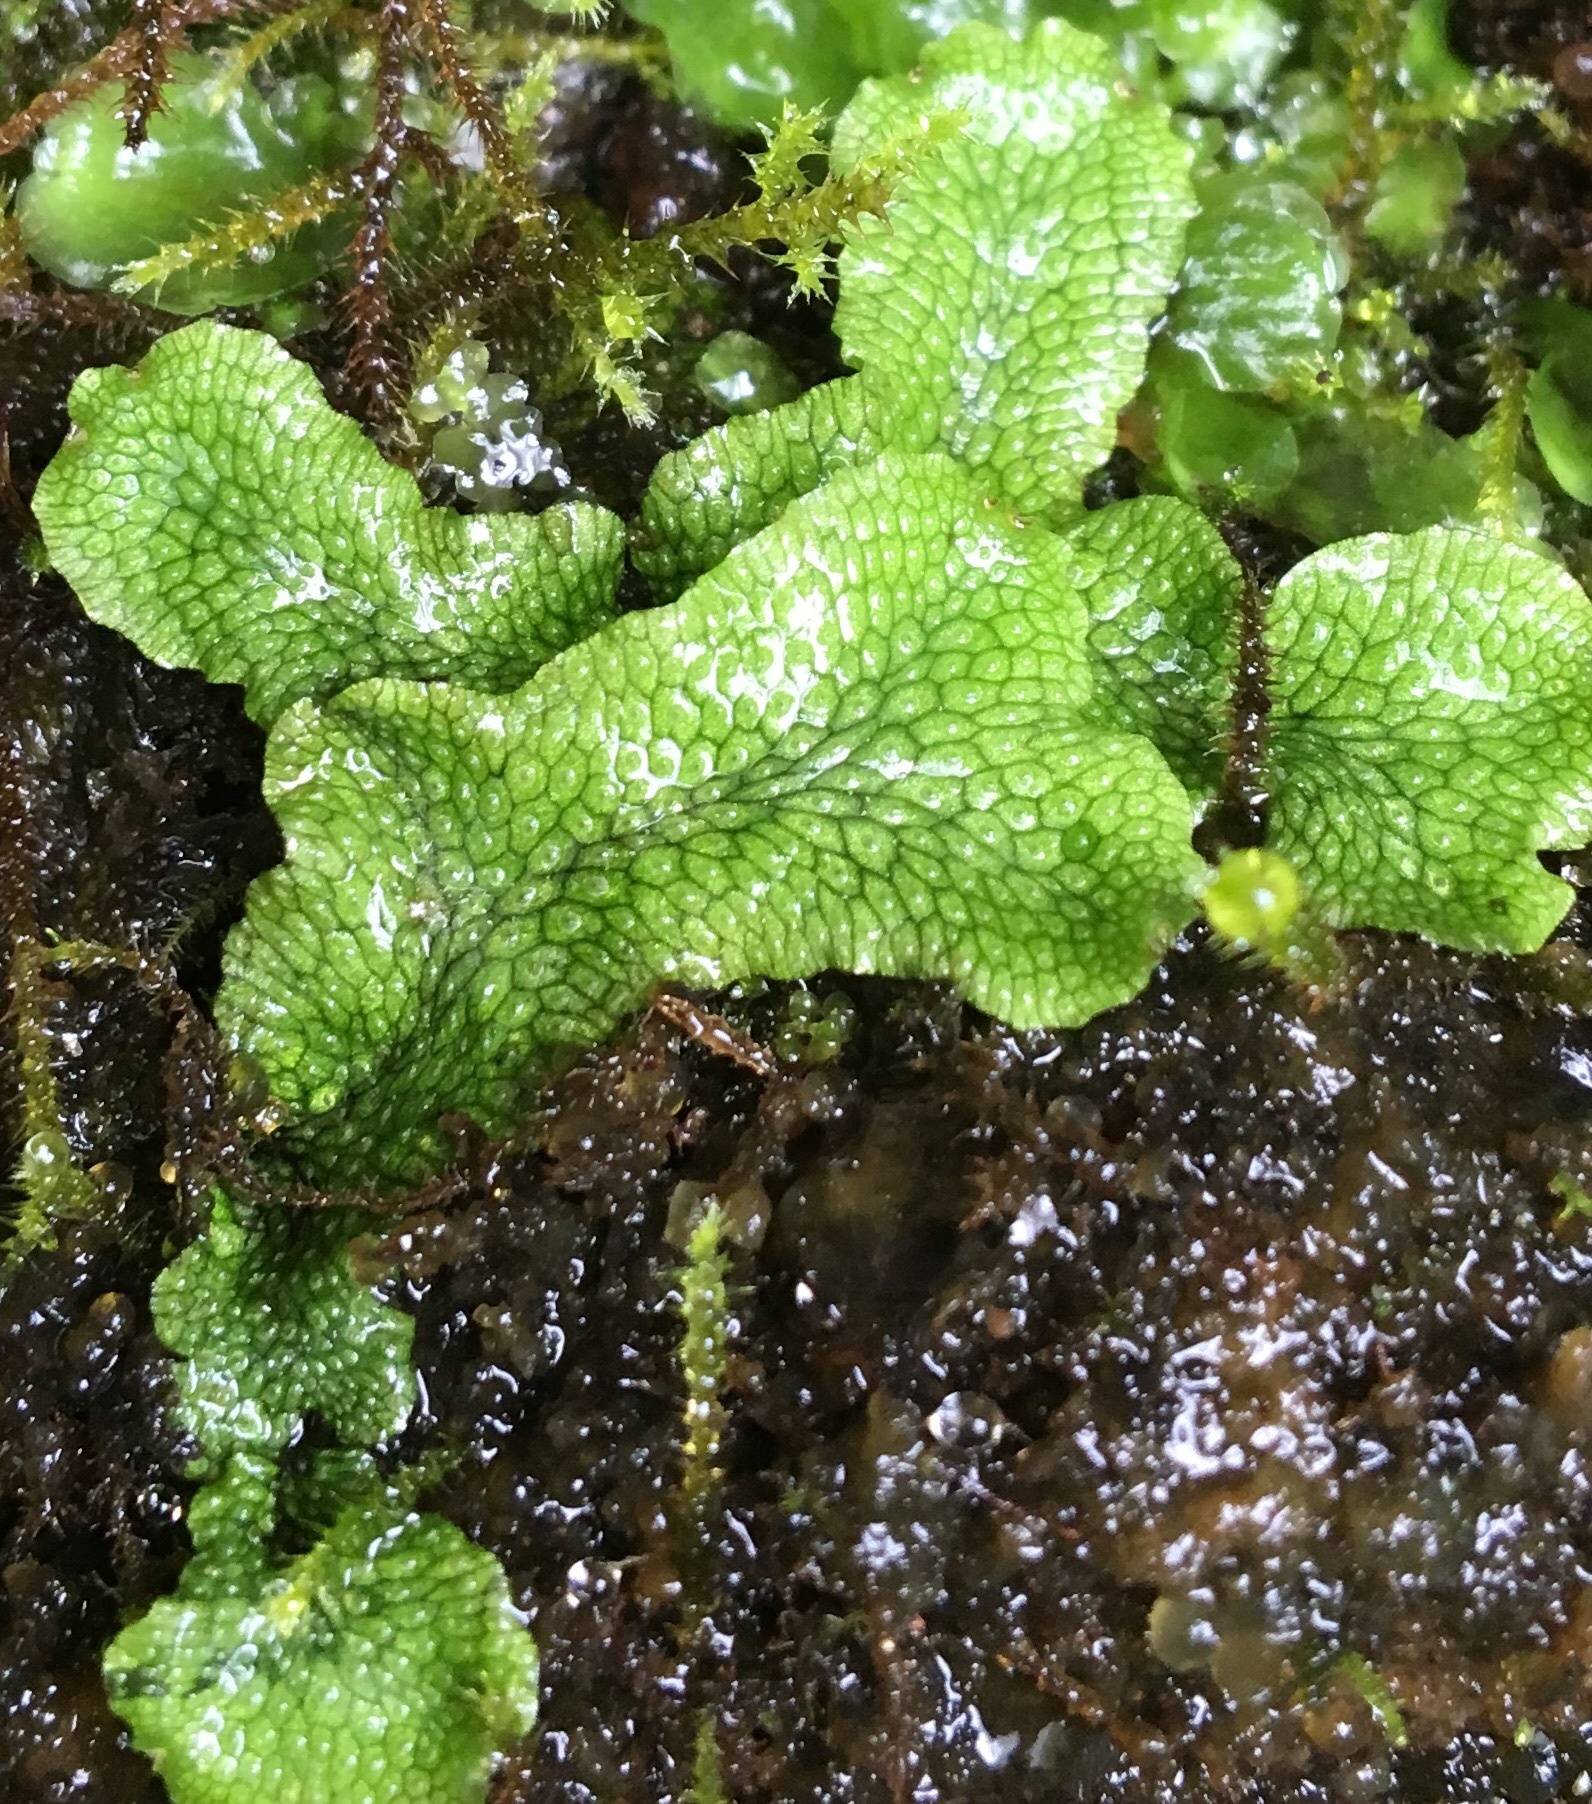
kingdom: Plantae
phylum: Marchantiophyta
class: Marchantiopsida
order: Marchantiales
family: Conocephalaceae
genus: Conocephalum
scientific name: Conocephalum salebrosum
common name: Cat-tongue liverwort
